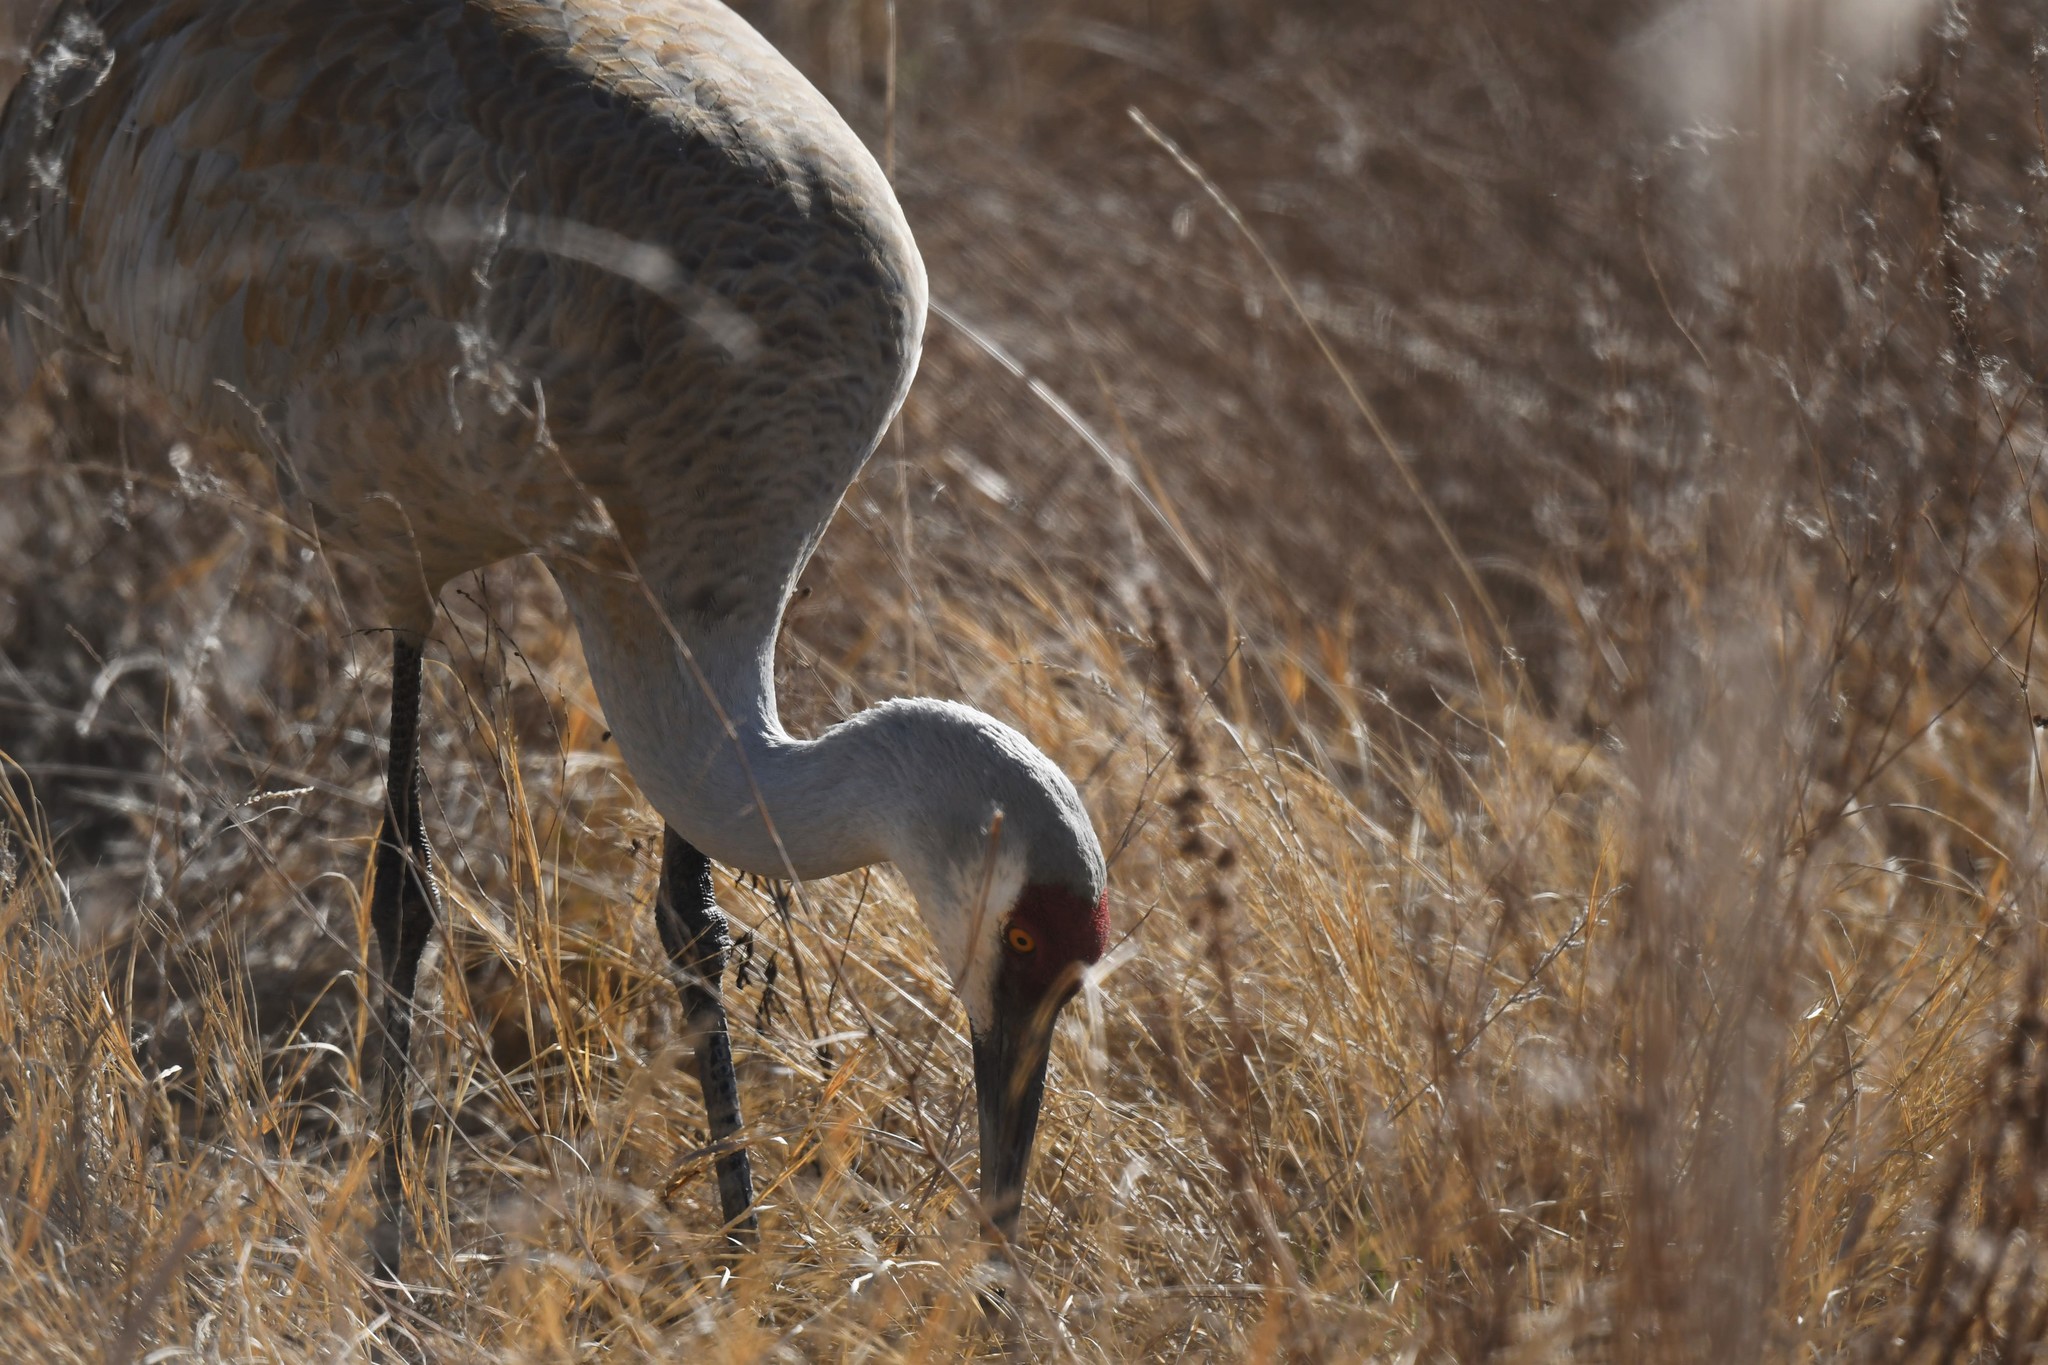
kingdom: Animalia
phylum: Chordata
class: Aves
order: Gruiformes
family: Gruidae
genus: Grus
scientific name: Grus canadensis
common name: Sandhill crane
